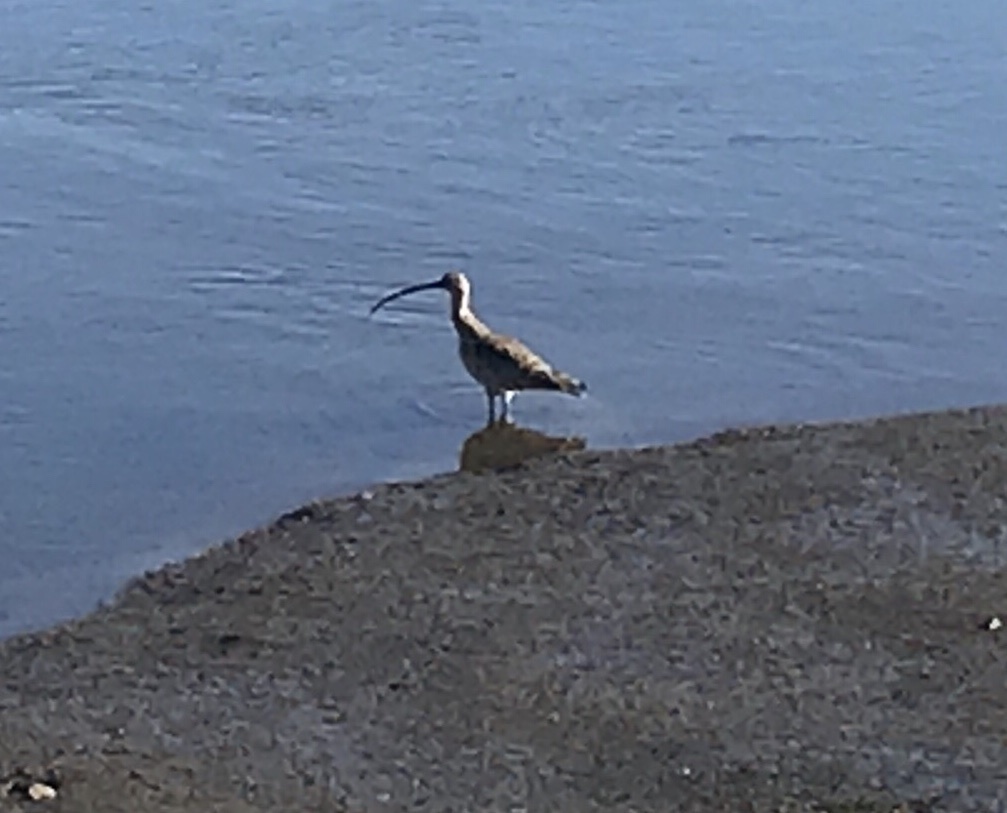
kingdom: Animalia
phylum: Chordata
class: Aves
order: Charadriiformes
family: Scolopacidae
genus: Numenius
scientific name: Numenius americanus
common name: Long-billed curlew
